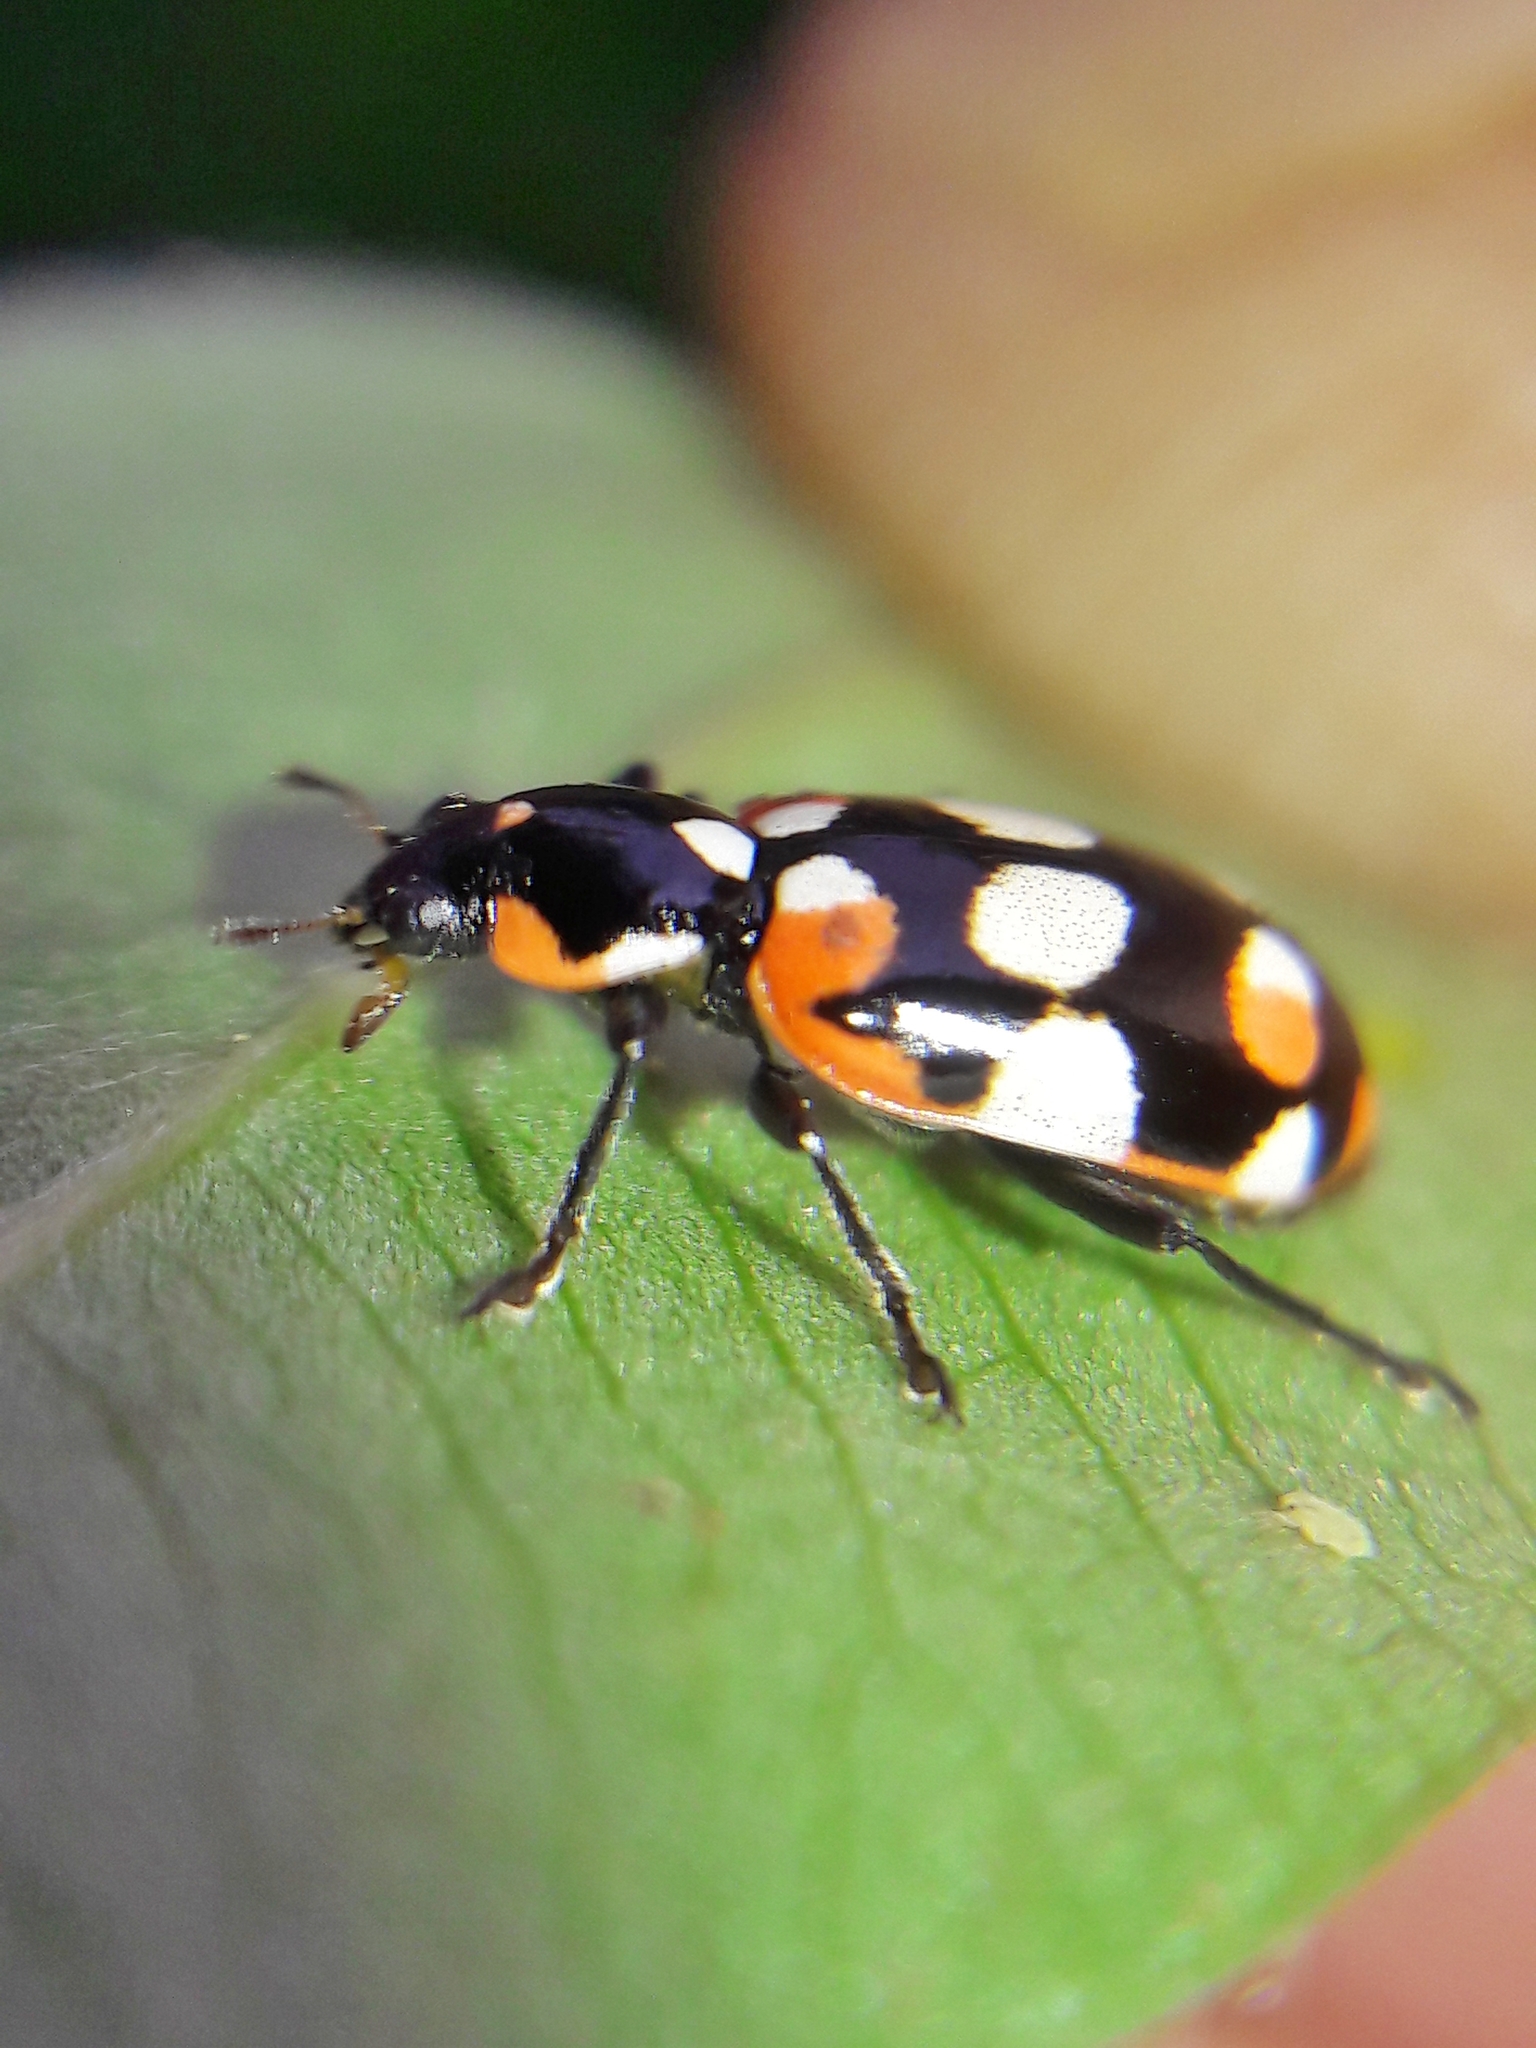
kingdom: Animalia
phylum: Arthropoda
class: Insecta
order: Coleoptera
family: Coccinellidae
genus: Eriopis
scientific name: Eriopis connexa
